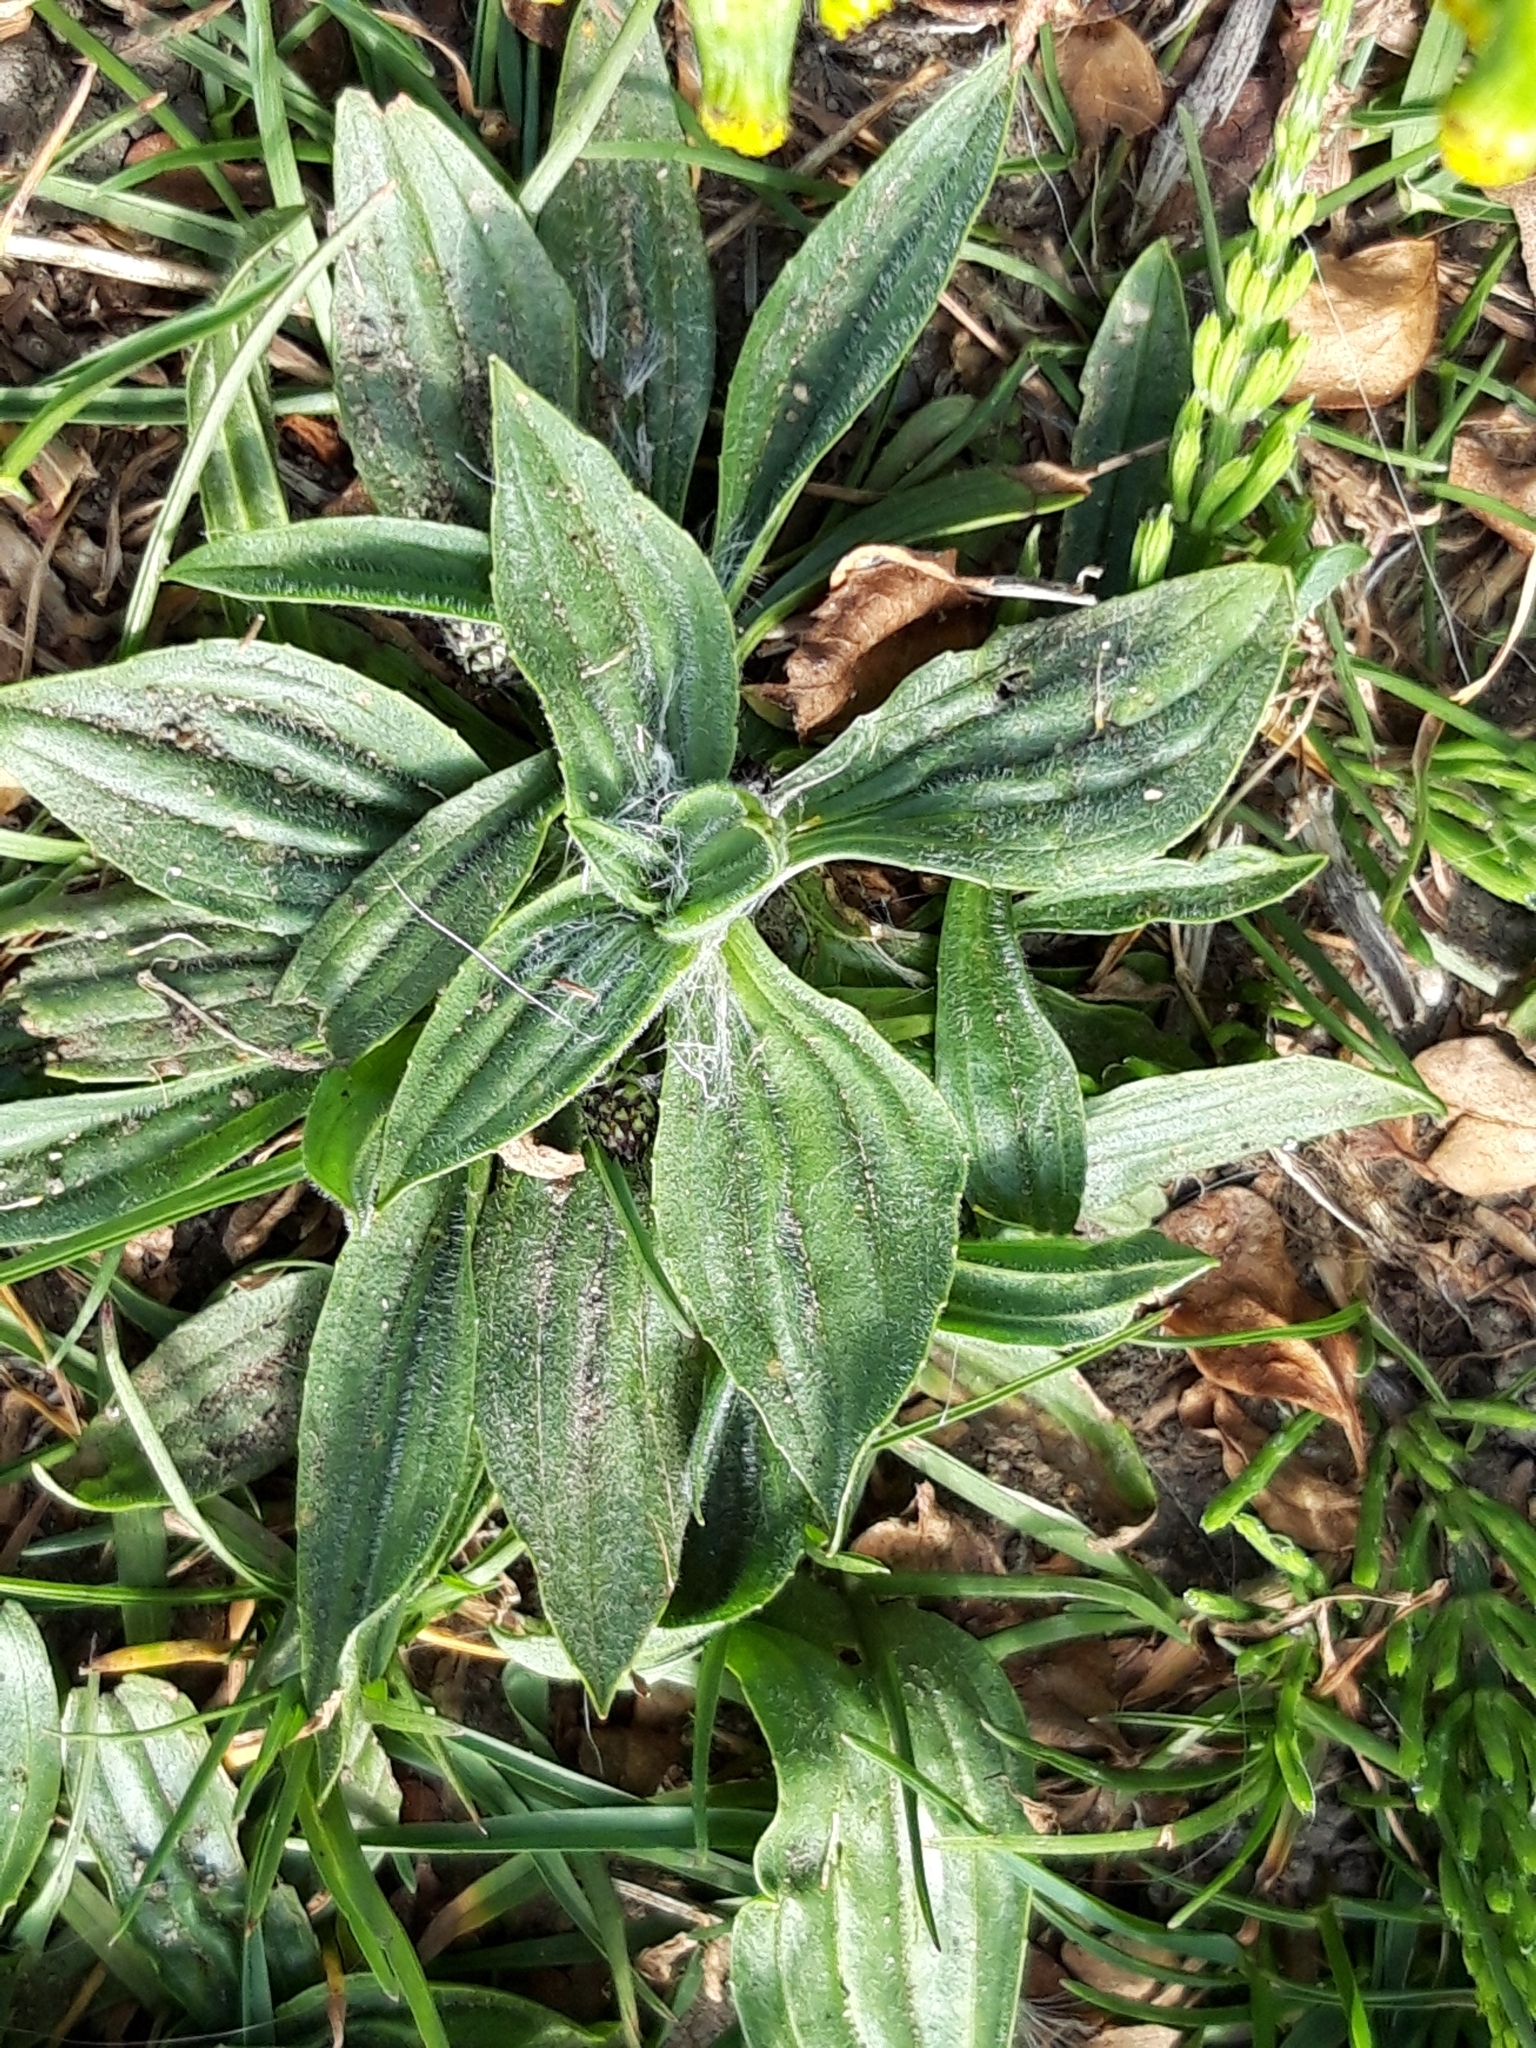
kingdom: Plantae
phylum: Tracheophyta
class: Magnoliopsida
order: Lamiales
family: Plantaginaceae
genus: Plantago
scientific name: Plantago lanceolata
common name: Ribwort plantain
